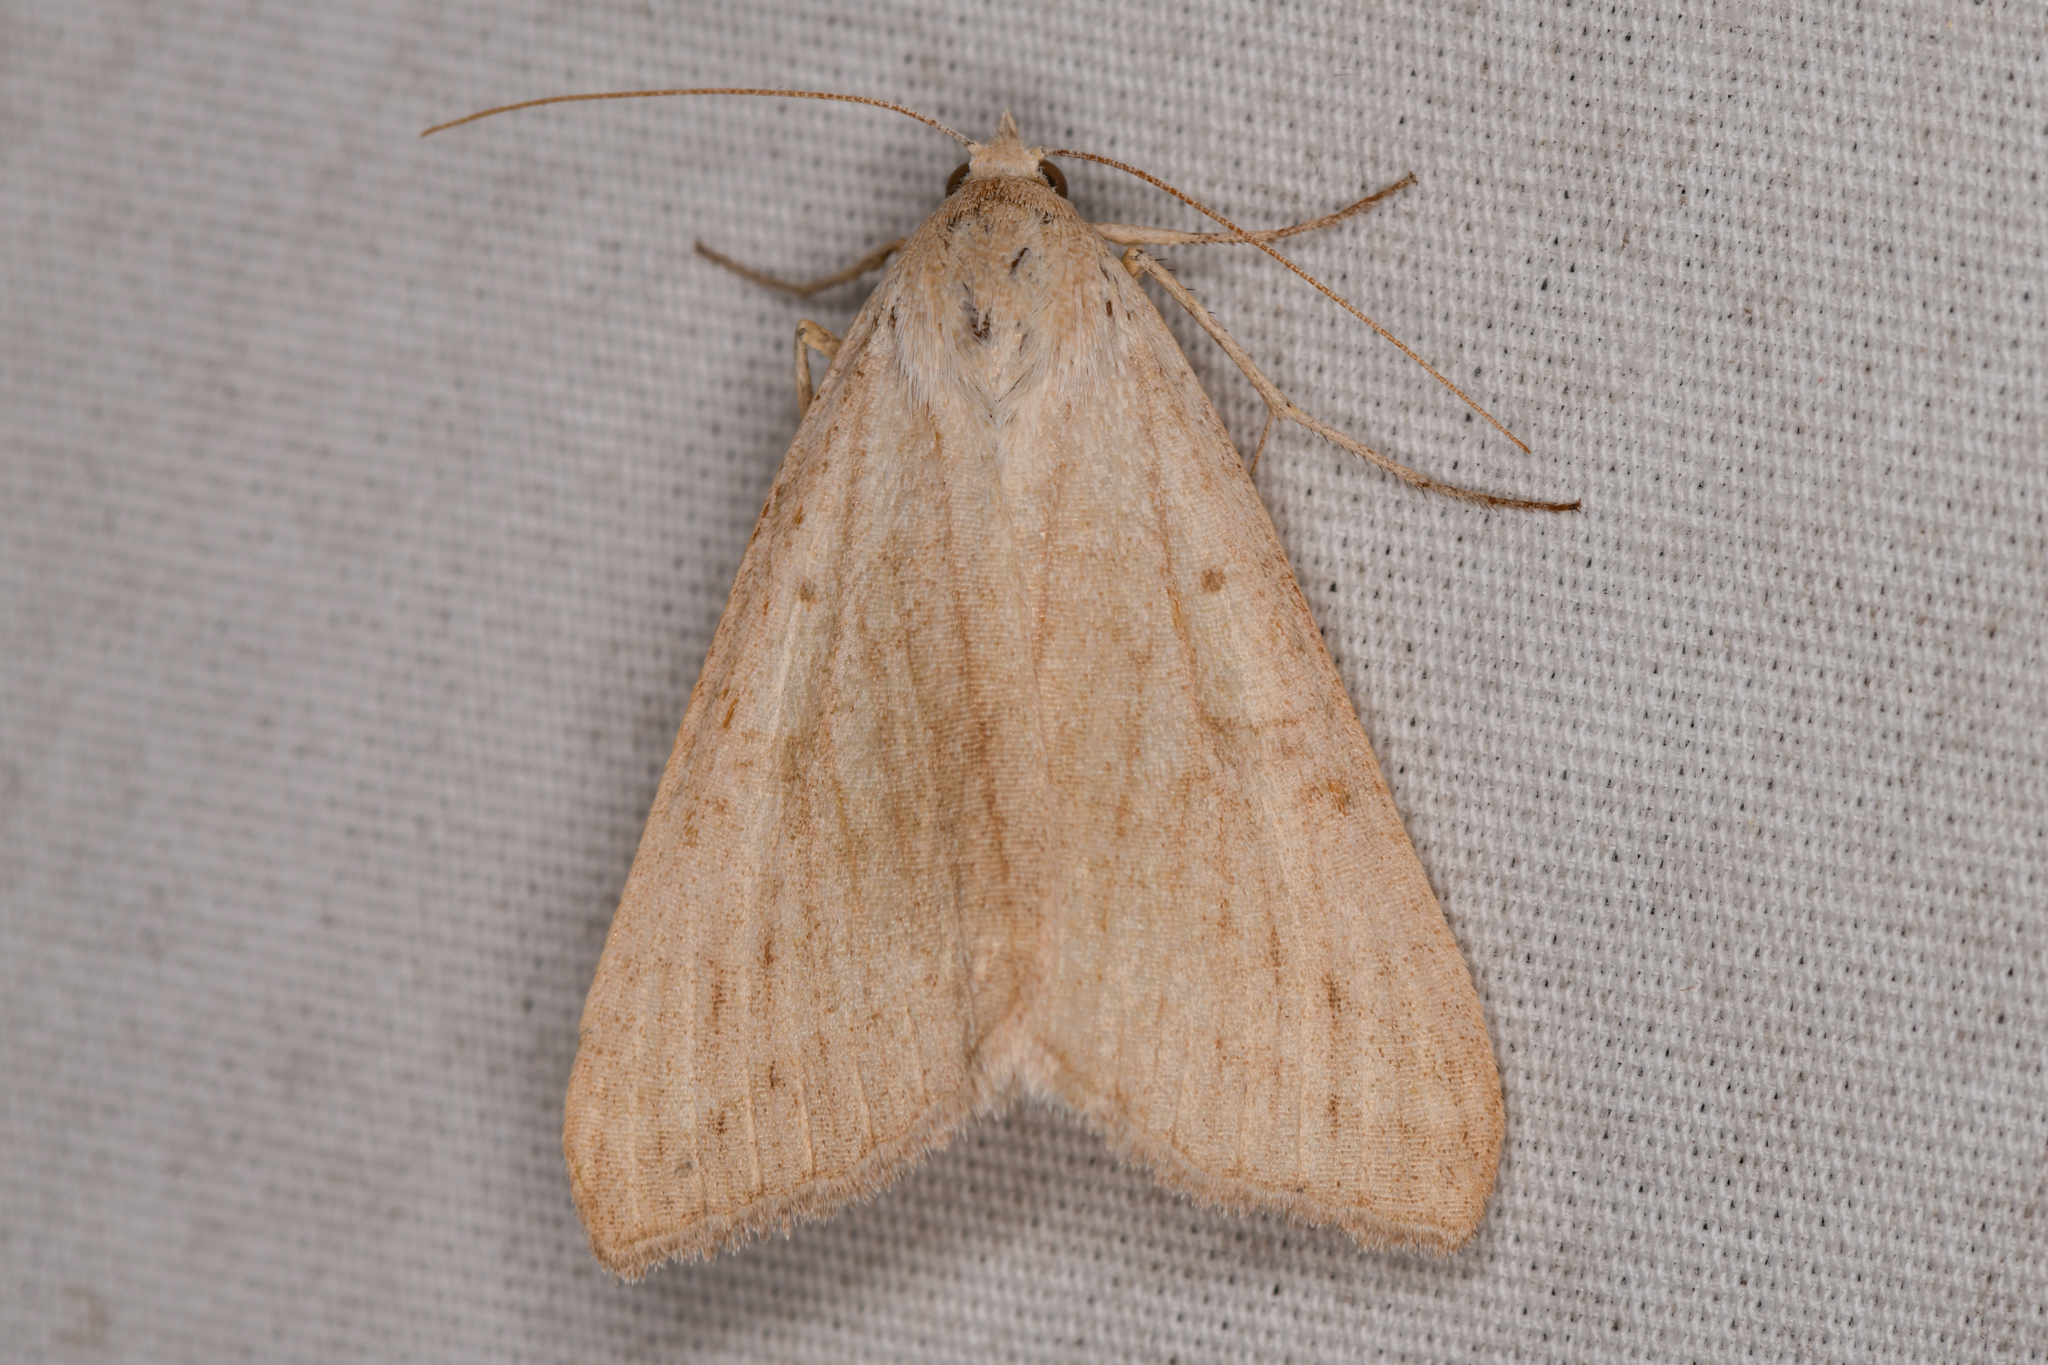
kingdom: Animalia
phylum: Arthropoda
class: Insecta
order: Lepidoptera
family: Erebidae
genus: Caenurgia
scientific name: Caenurgia togataria
